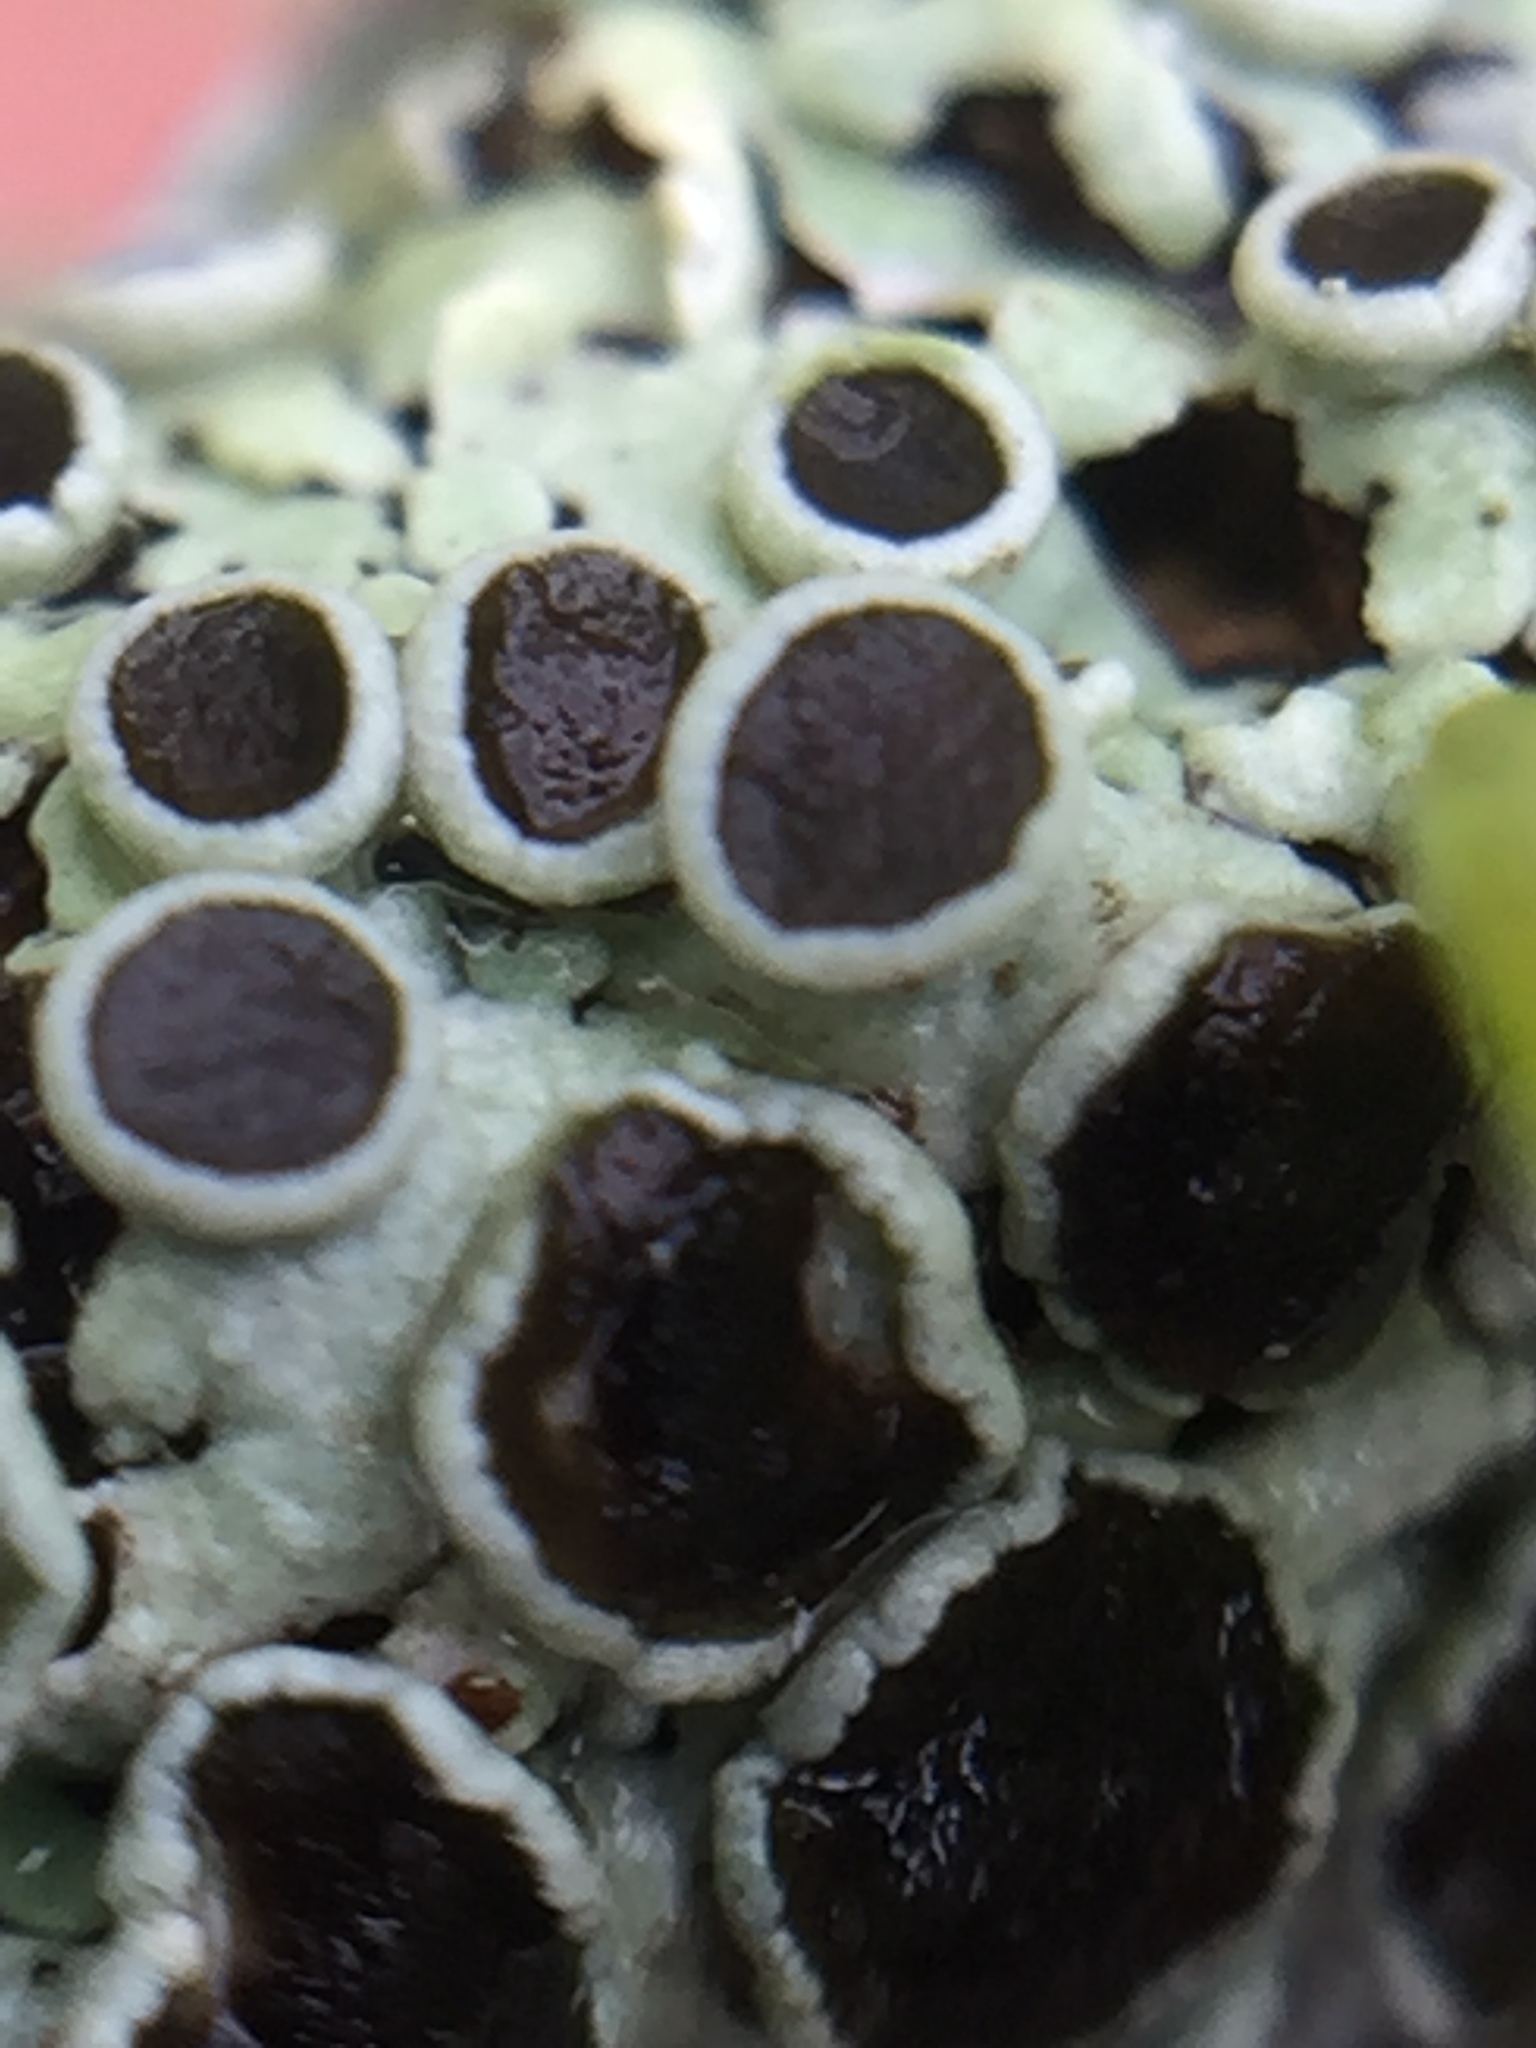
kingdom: Fungi
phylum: Ascomycota
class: Lecanoromycetes
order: Caliciales
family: Physciaceae
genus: Kashiwadia
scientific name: Kashiwadia jackii
